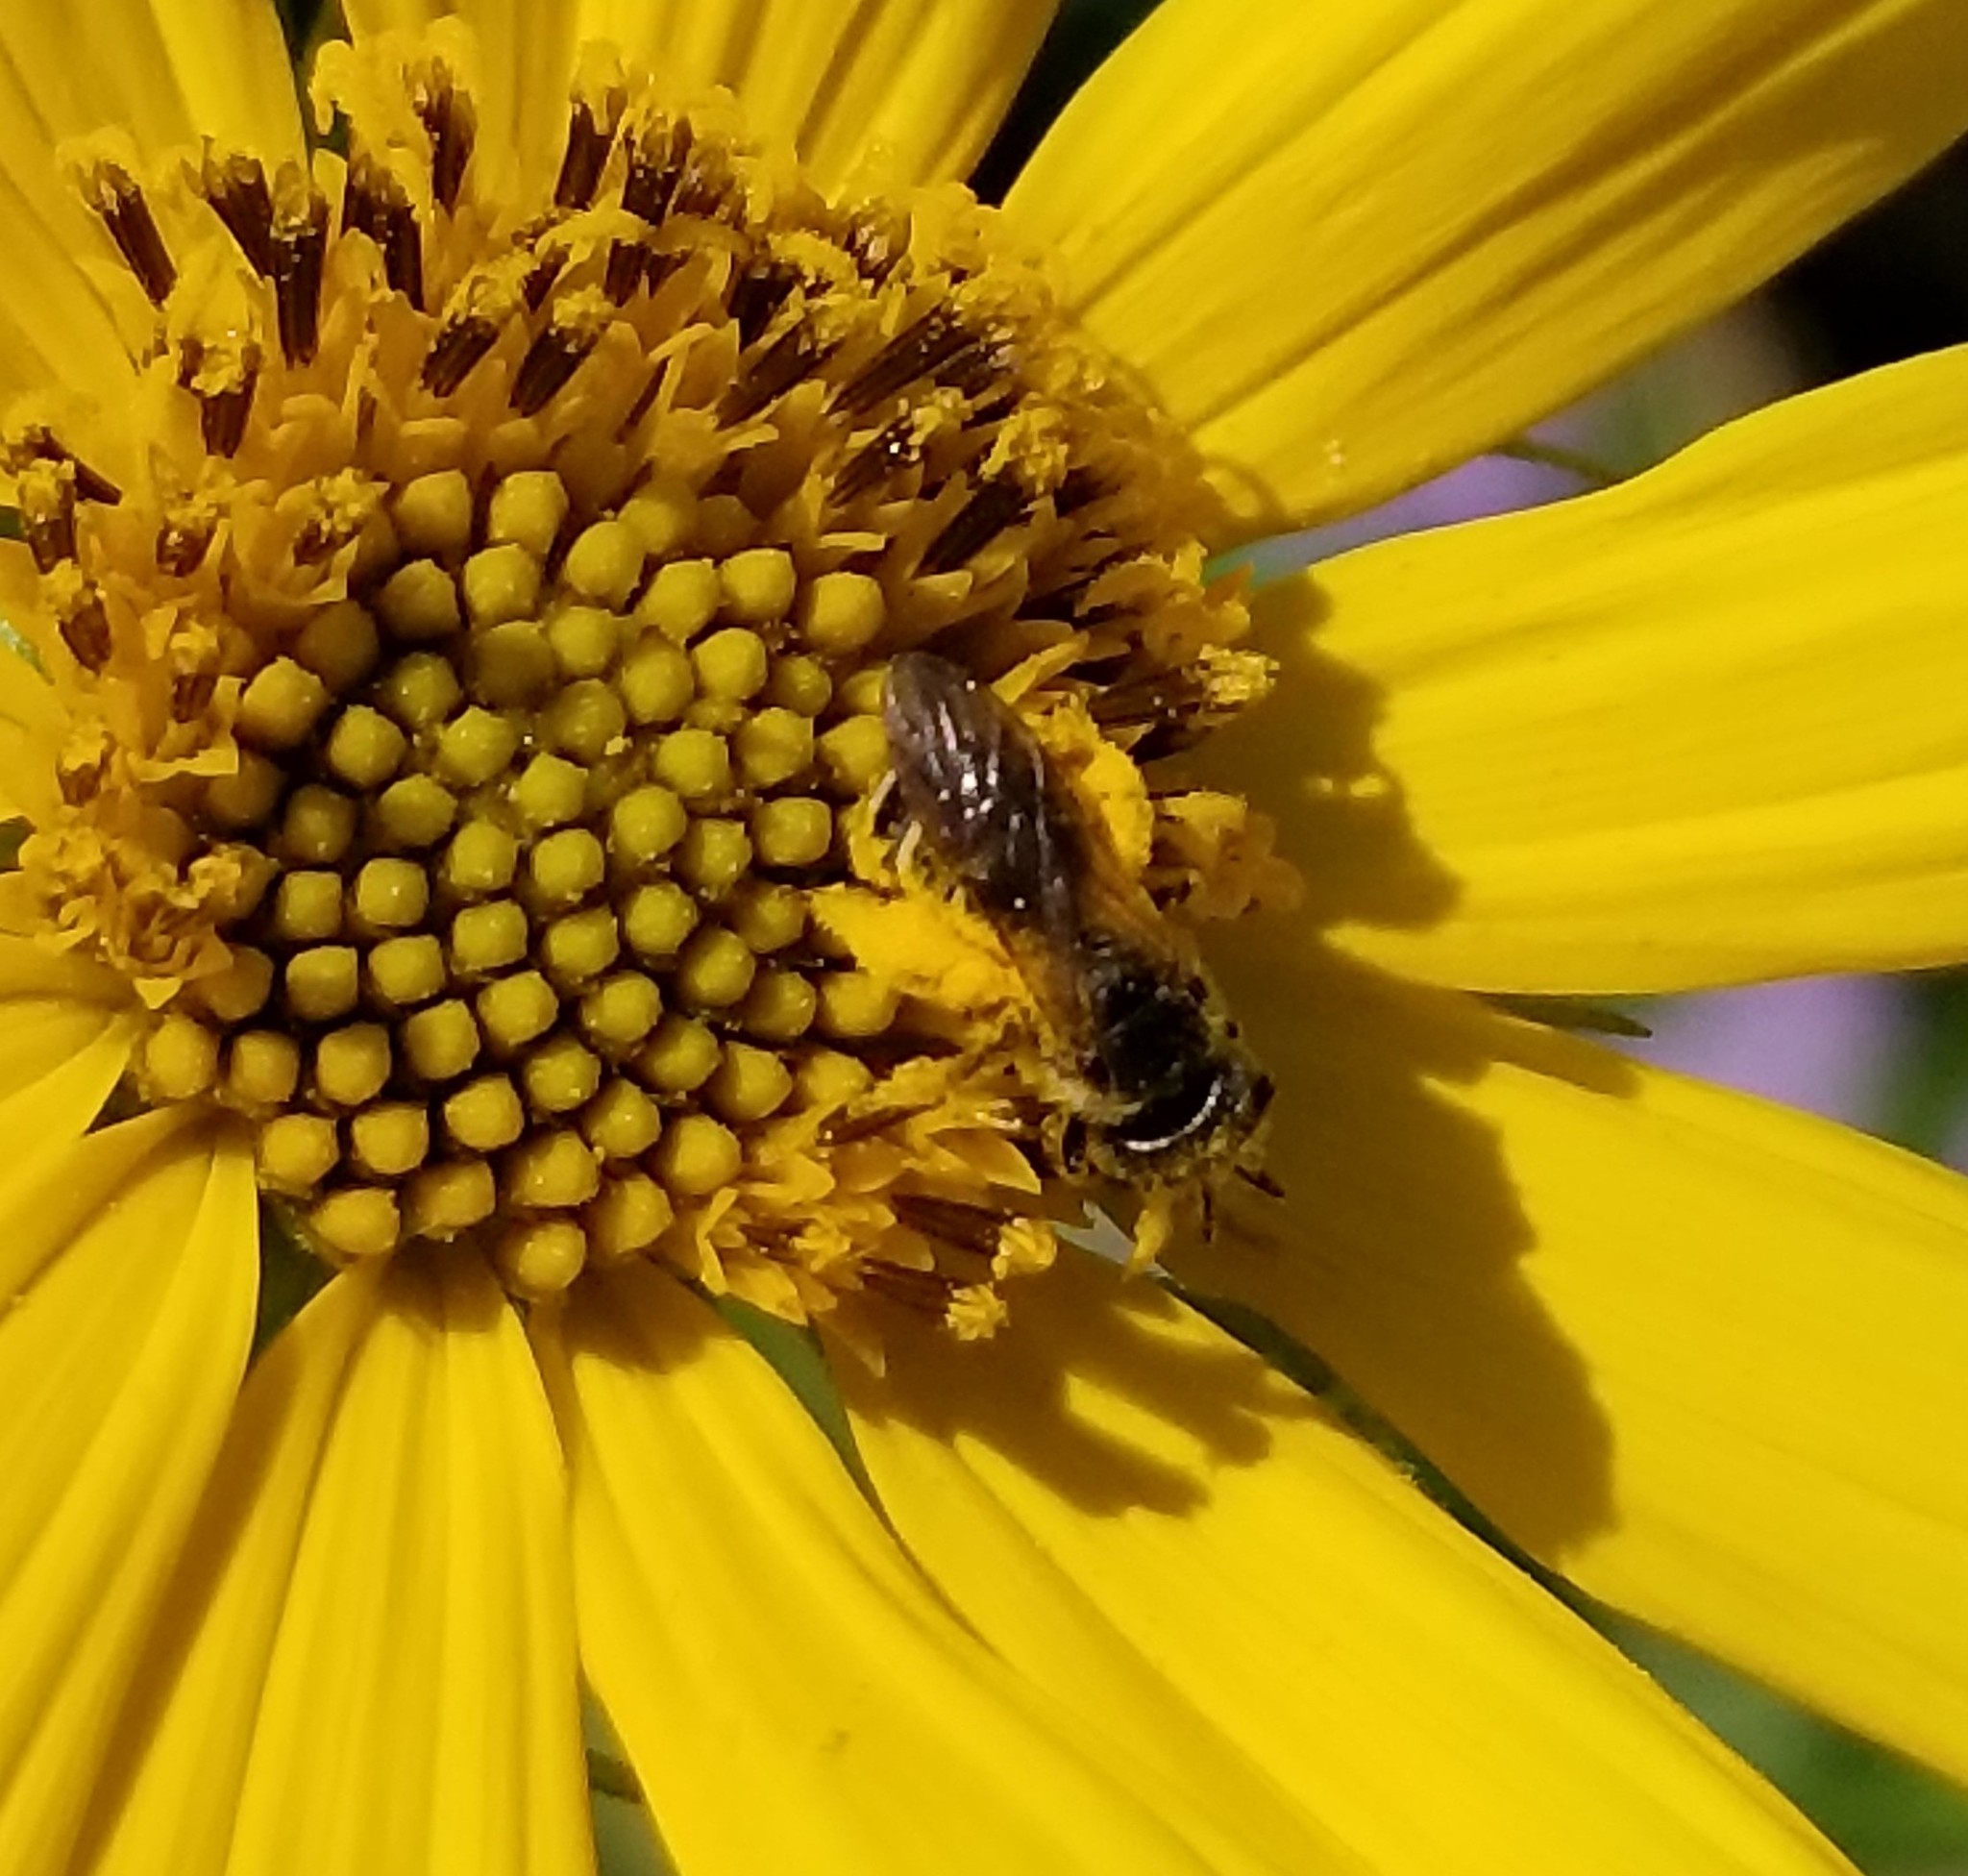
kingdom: Animalia
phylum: Arthropoda
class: Insecta
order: Hymenoptera
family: Halictidae
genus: Halictus
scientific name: Halictus ligatus
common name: Ligated furrow bee
